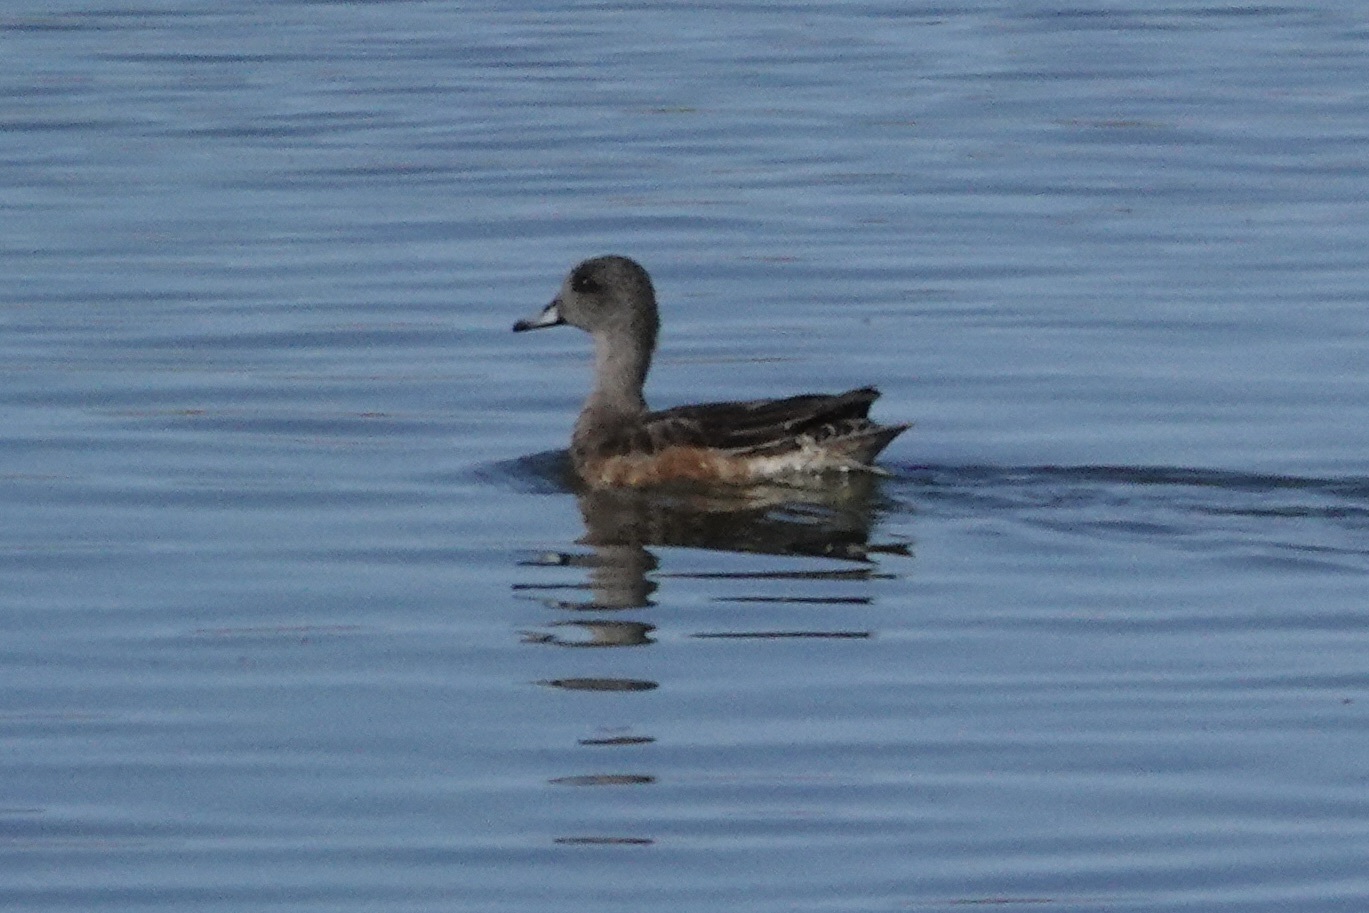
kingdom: Animalia
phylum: Chordata
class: Aves
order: Anseriformes
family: Anatidae
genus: Mareca
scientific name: Mareca americana
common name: American wigeon
